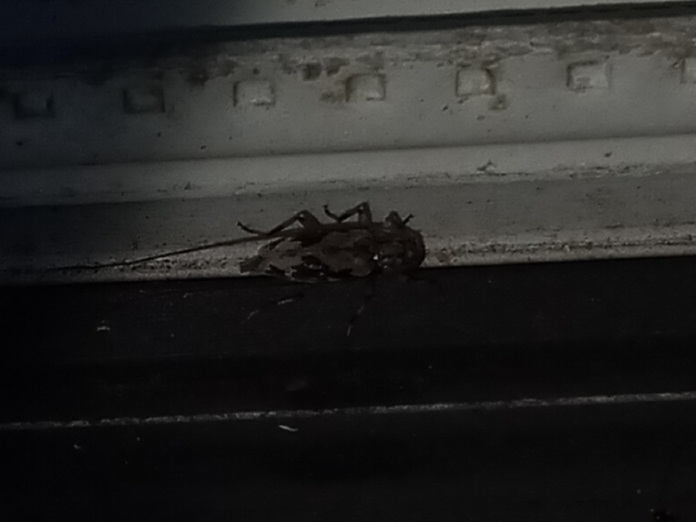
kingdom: Animalia
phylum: Arthropoda
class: Insecta
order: Coleoptera
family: Cerambycidae
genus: Lepturges
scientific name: Lepturges angulatus
